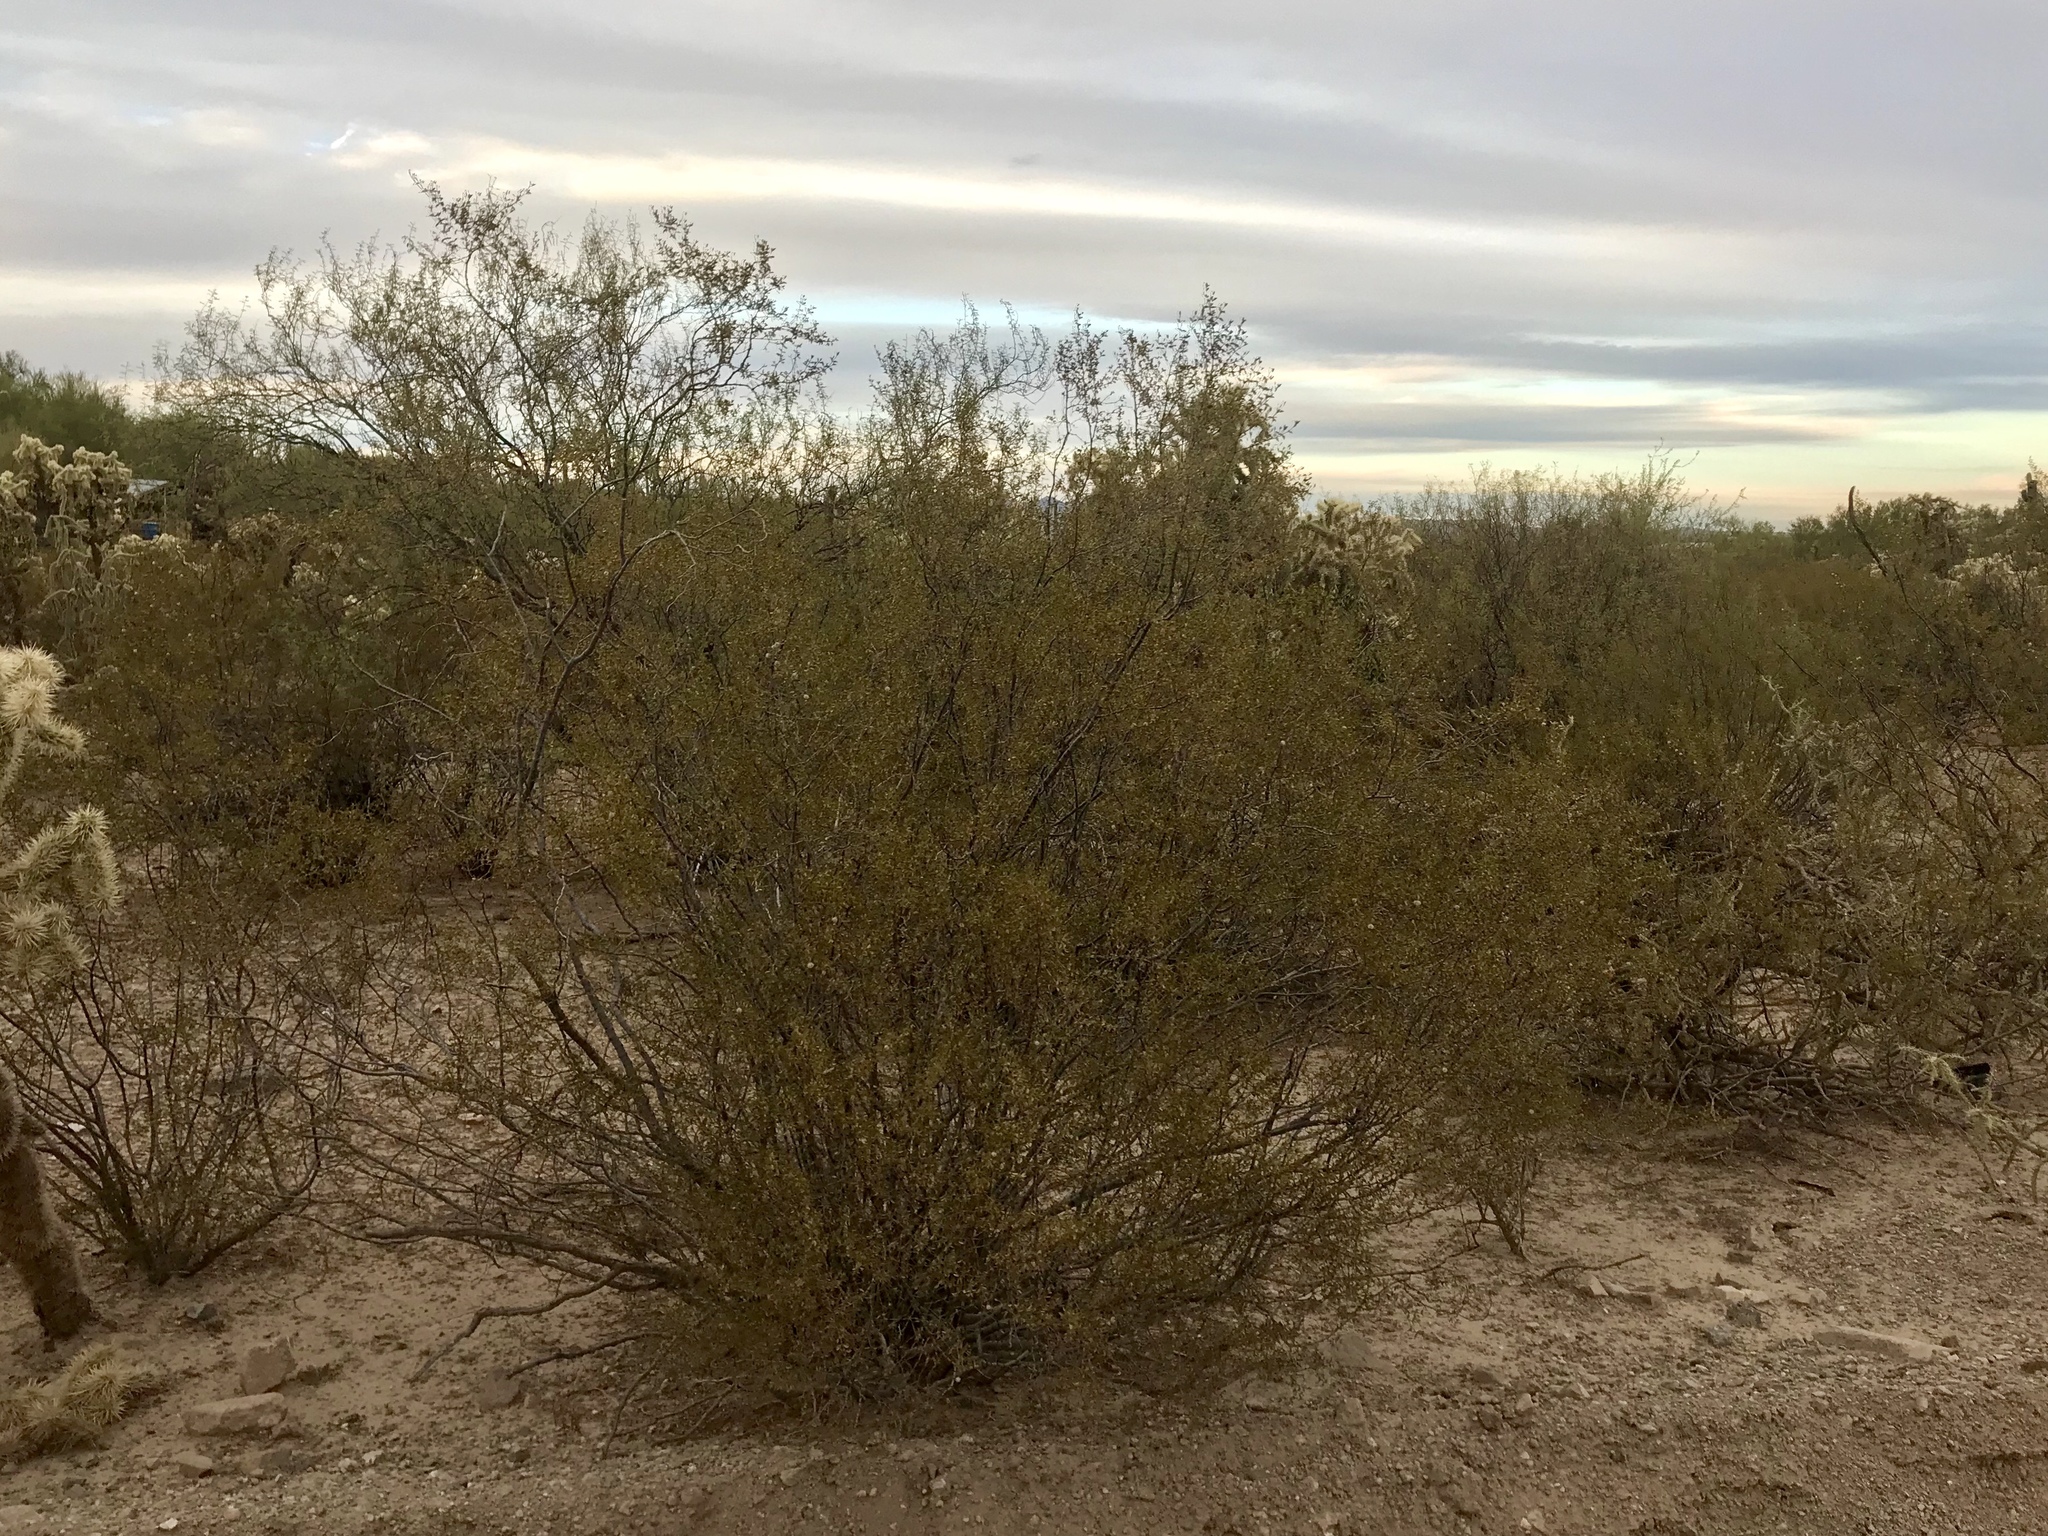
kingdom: Plantae
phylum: Tracheophyta
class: Magnoliopsida
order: Zygophyllales
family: Zygophyllaceae
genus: Larrea
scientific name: Larrea tridentata
